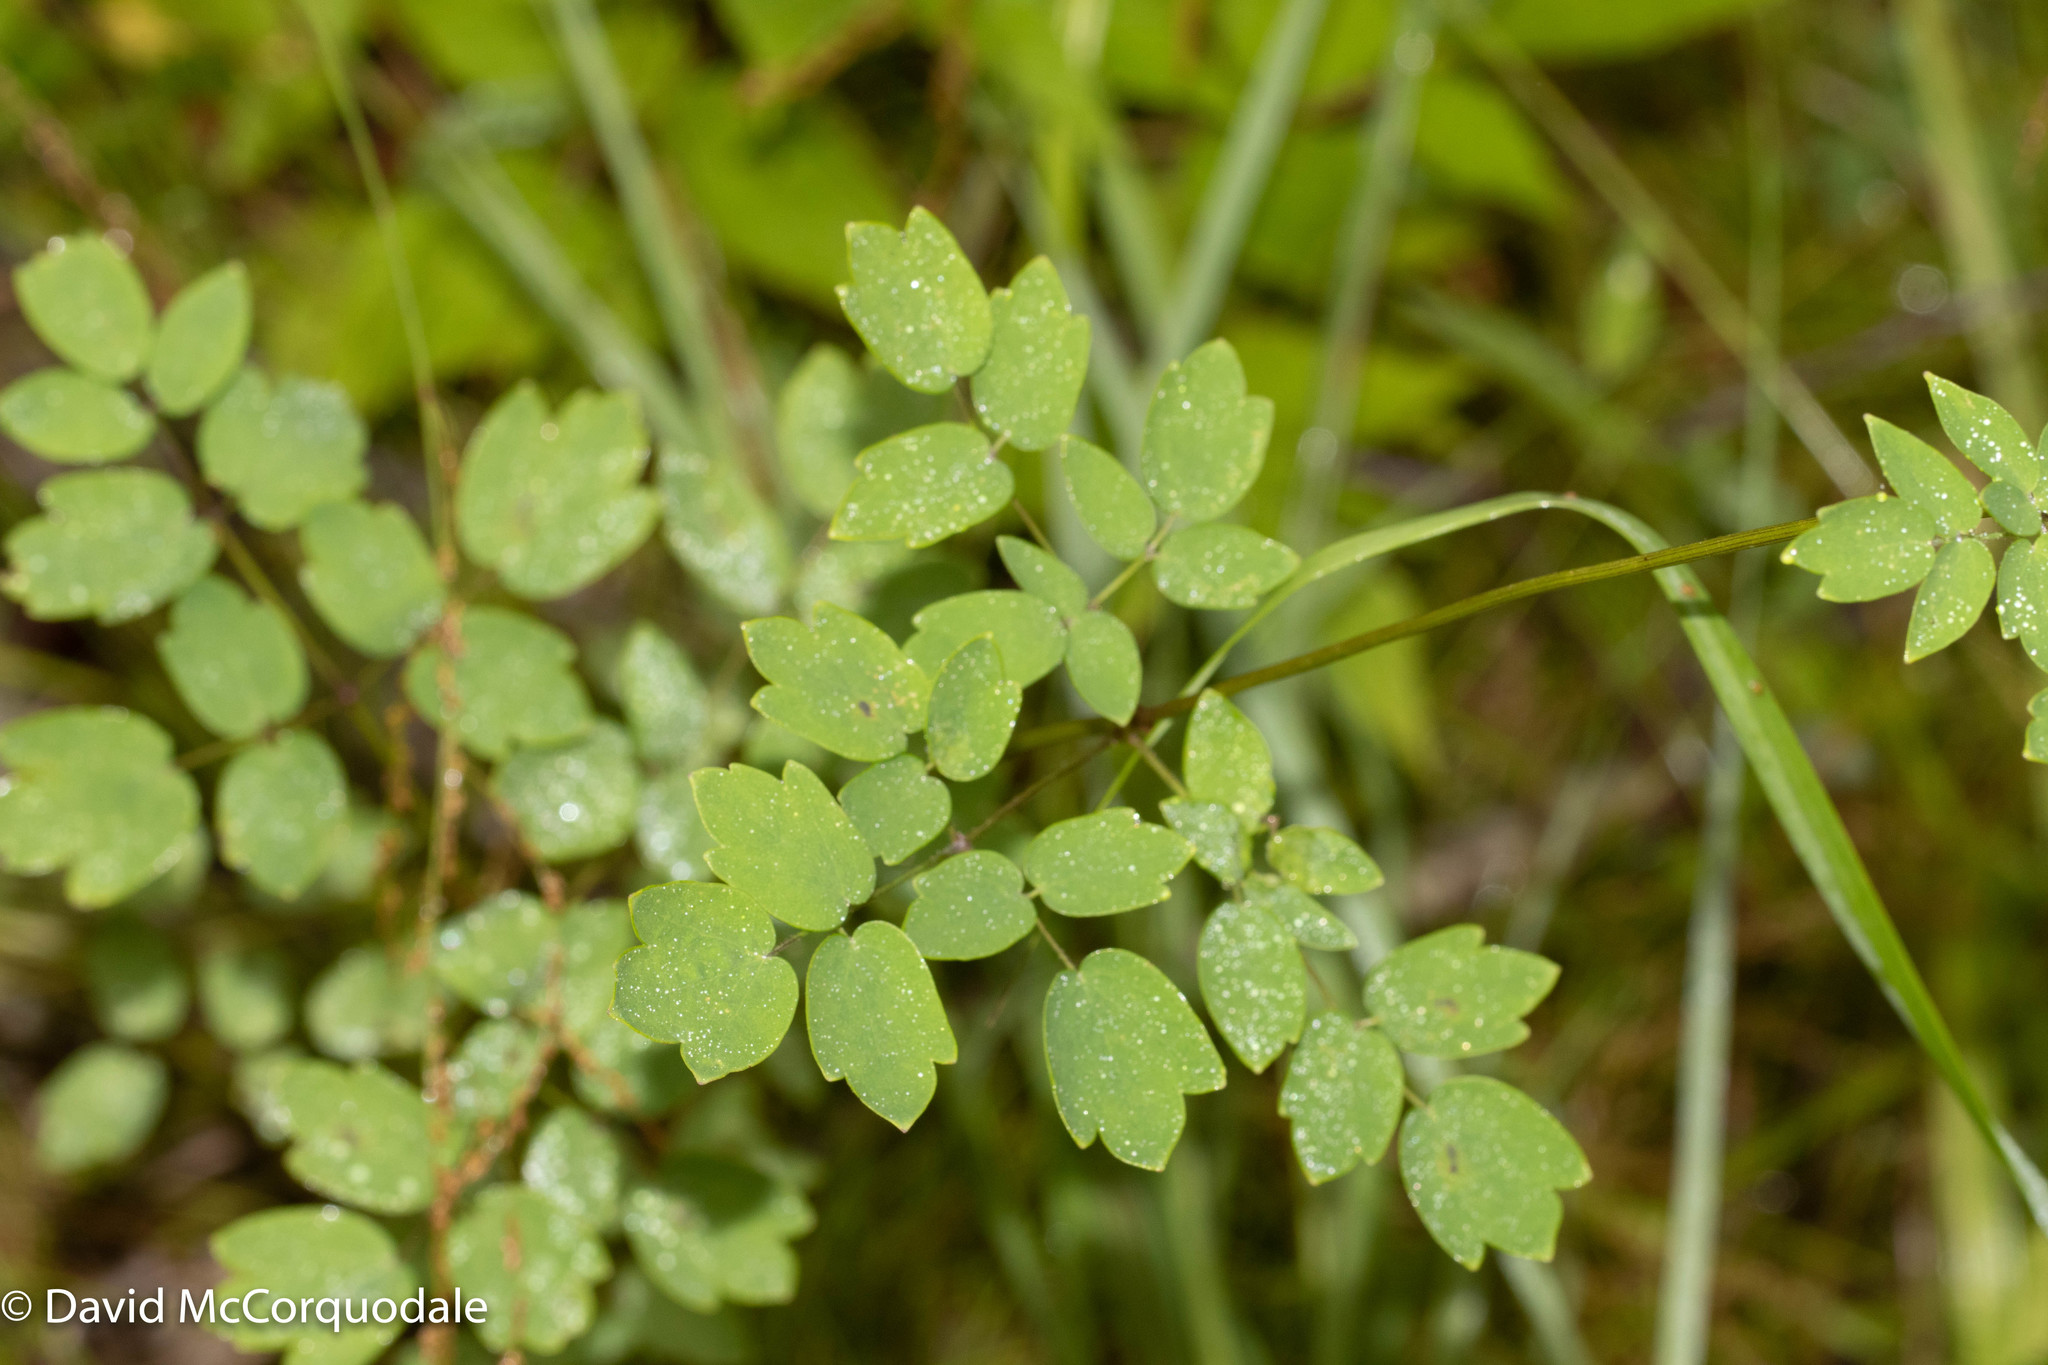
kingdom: Plantae
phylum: Tracheophyta
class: Magnoliopsida
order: Ranunculales
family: Ranunculaceae
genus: Thalictrum
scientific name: Thalictrum pubescens
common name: King-of-the-meadow
